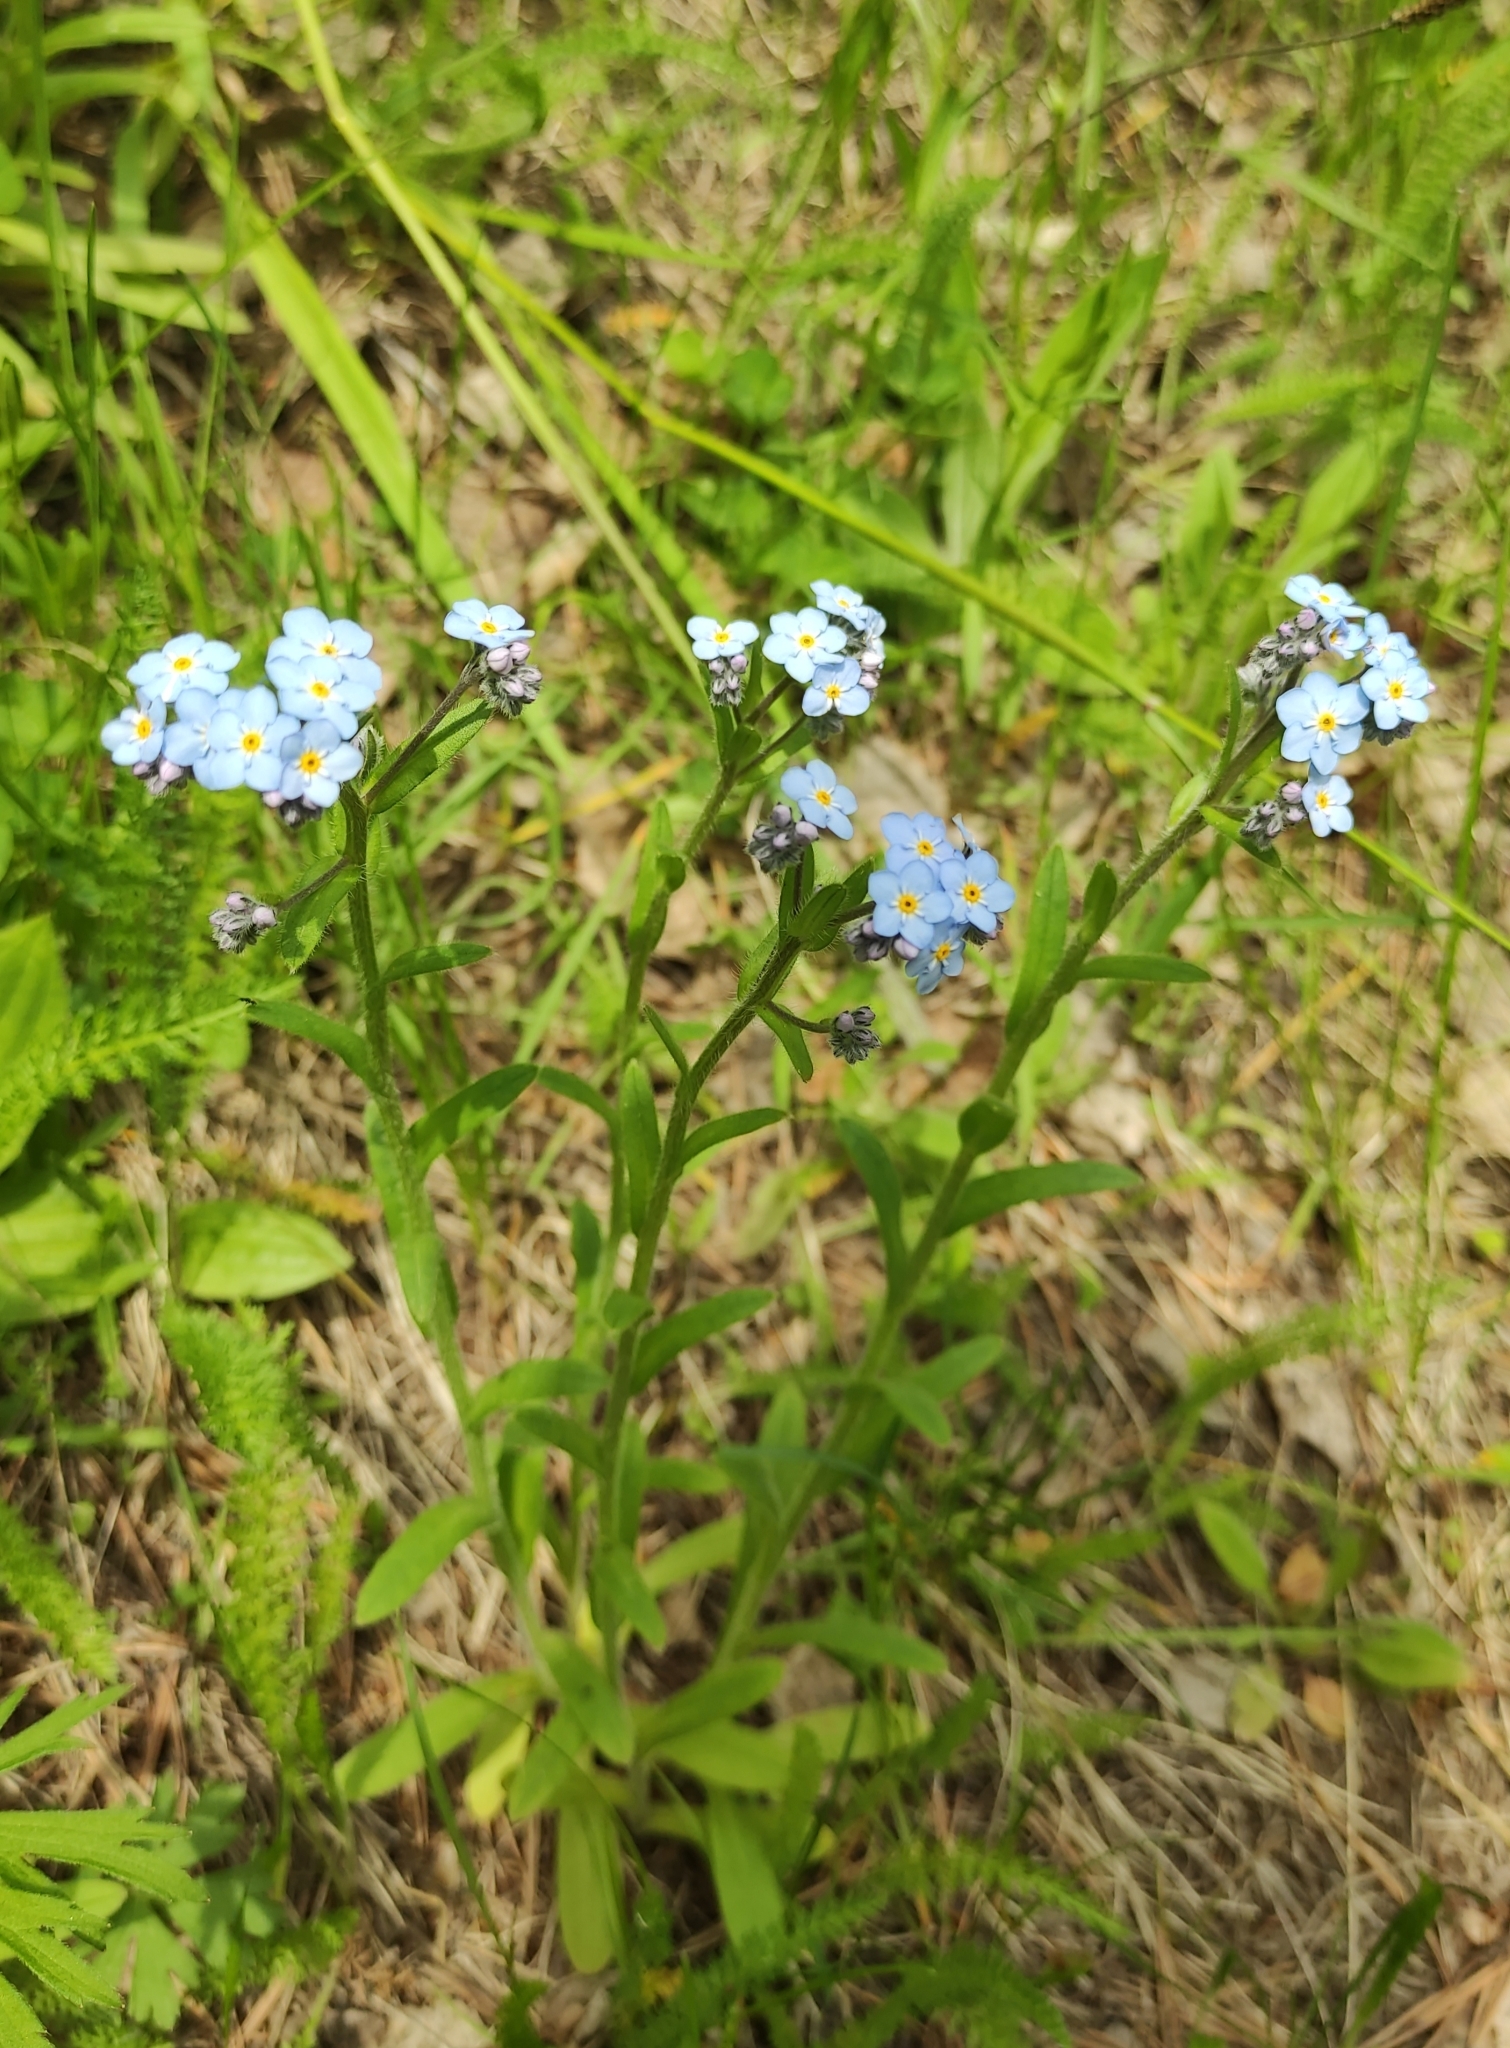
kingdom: Plantae
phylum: Tracheophyta
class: Magnoliopsida
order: Boraginales
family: Boraginaceae
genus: Myosotis
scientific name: Myosotis imitata
